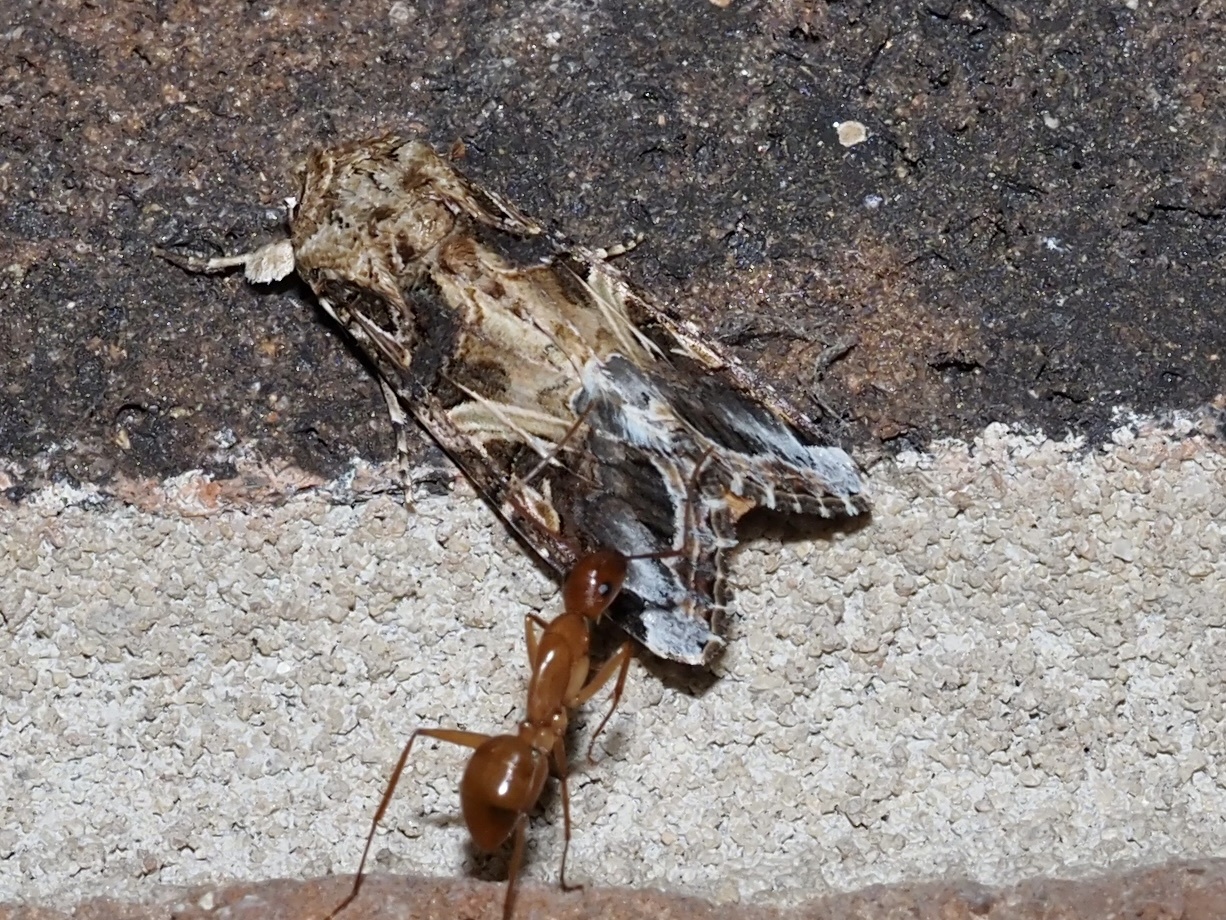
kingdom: Animalia
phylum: Arthropoda
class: Insecta
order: Hymenoptera
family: Formicidae
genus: Camponotus
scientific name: Camponotus castaneus
